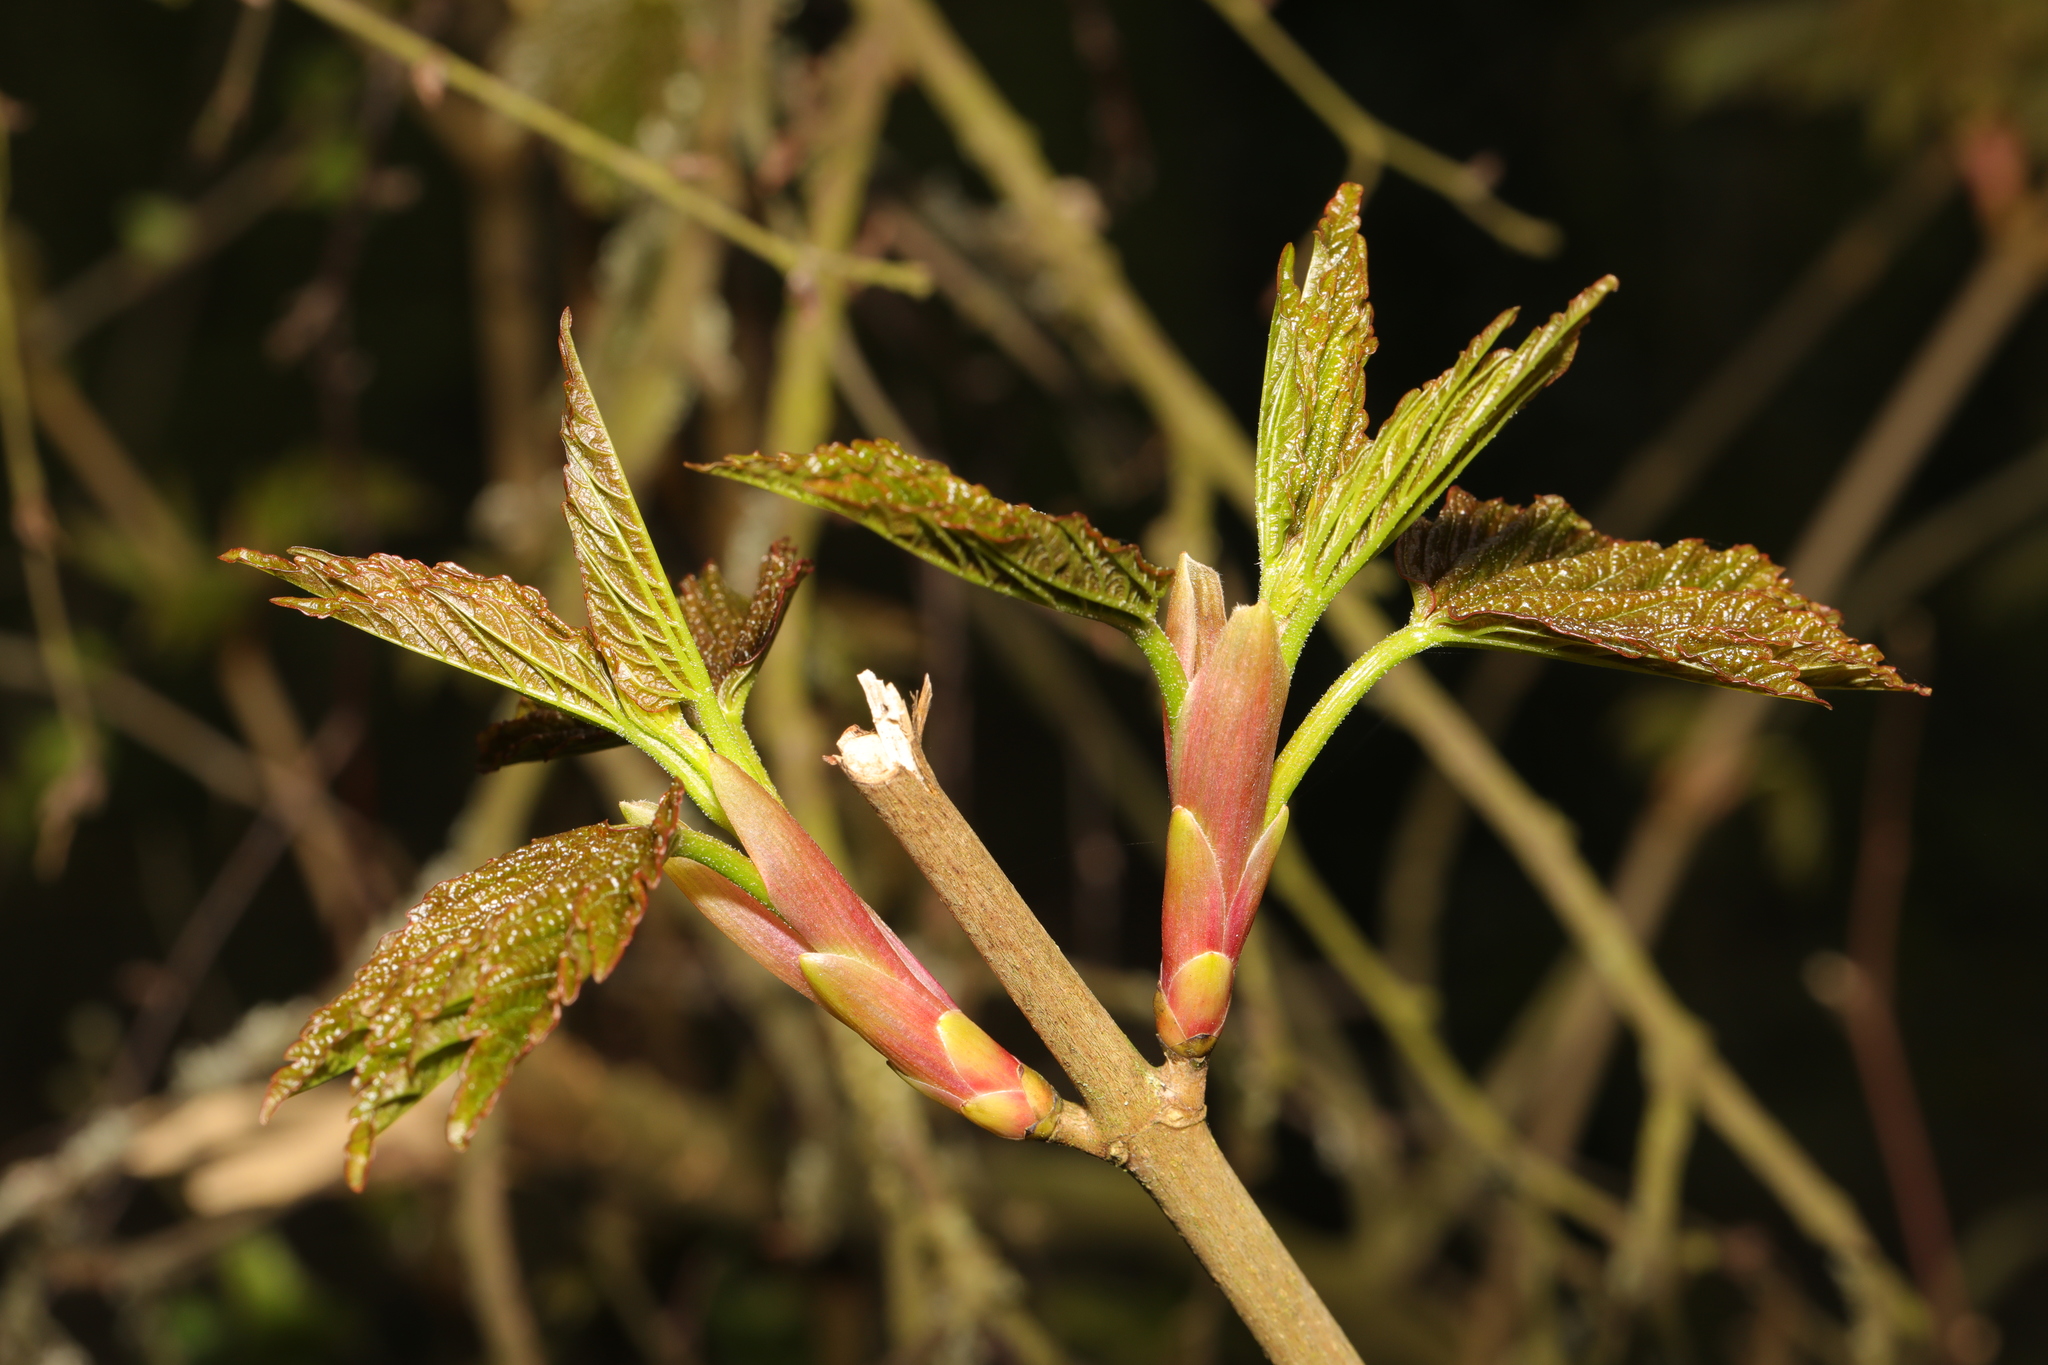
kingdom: Plantae
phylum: Tracheophyta
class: Magnoliopsida
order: Sapindales
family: Sapindaceae
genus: Acer
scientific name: Acer pseudoplatanus
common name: Sycamore
